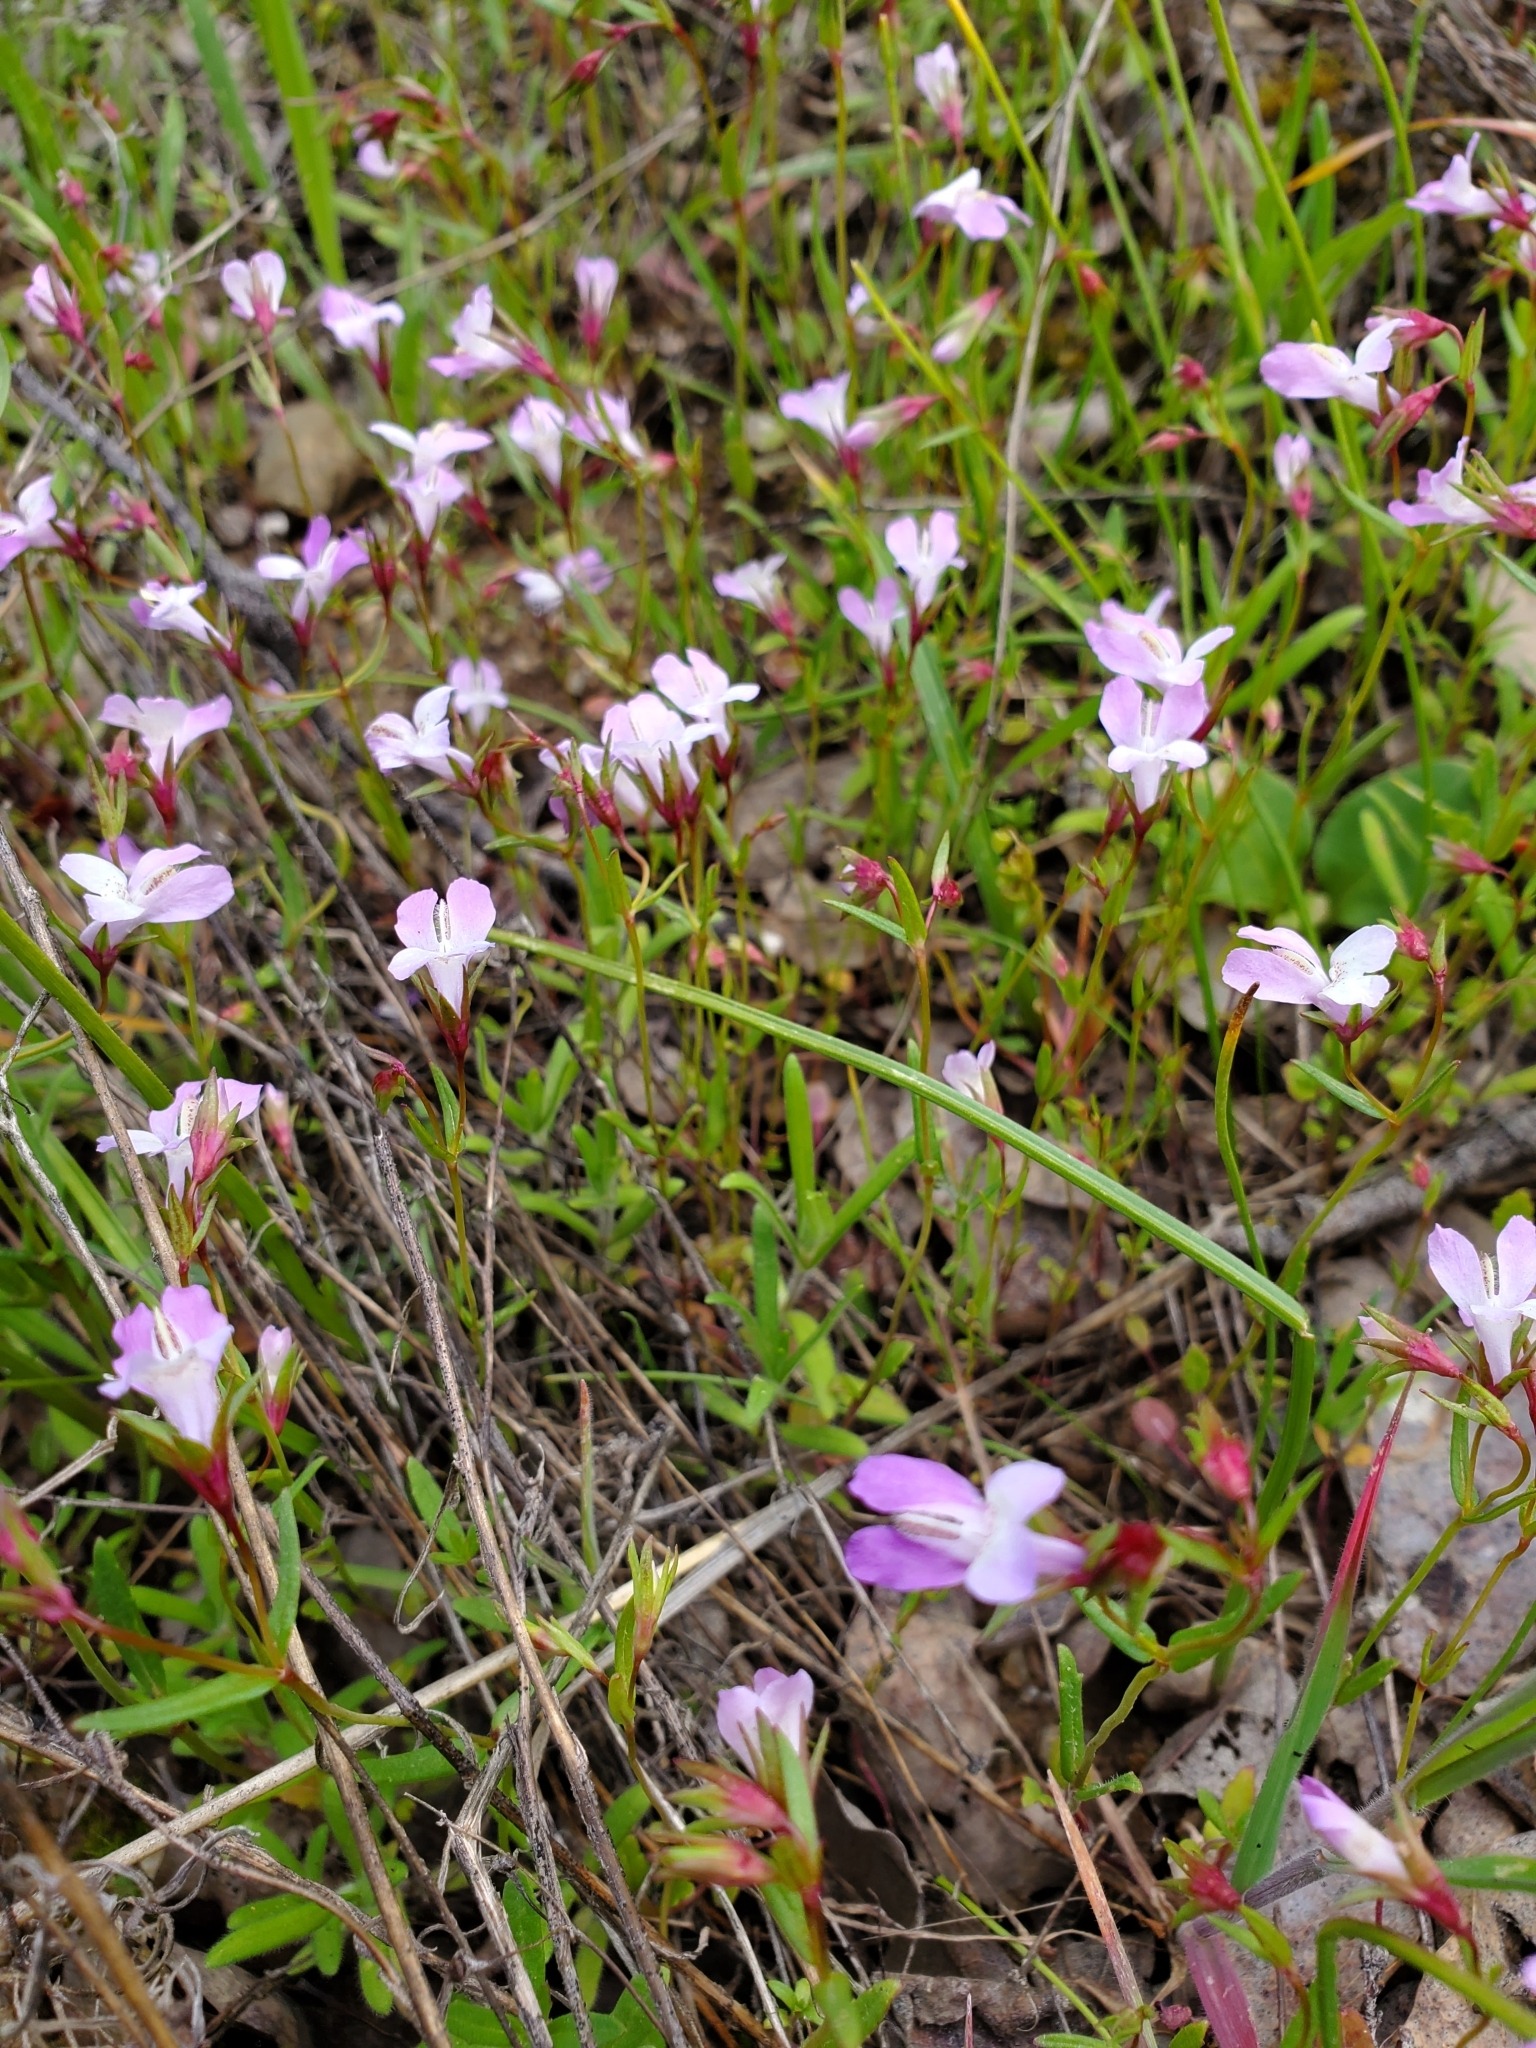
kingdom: Plantae
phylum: Tracheophyta
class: Magnoliopsida
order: Lamiales
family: Plantaginaceae
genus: Collinsia
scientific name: Collinsia sparsiflora
